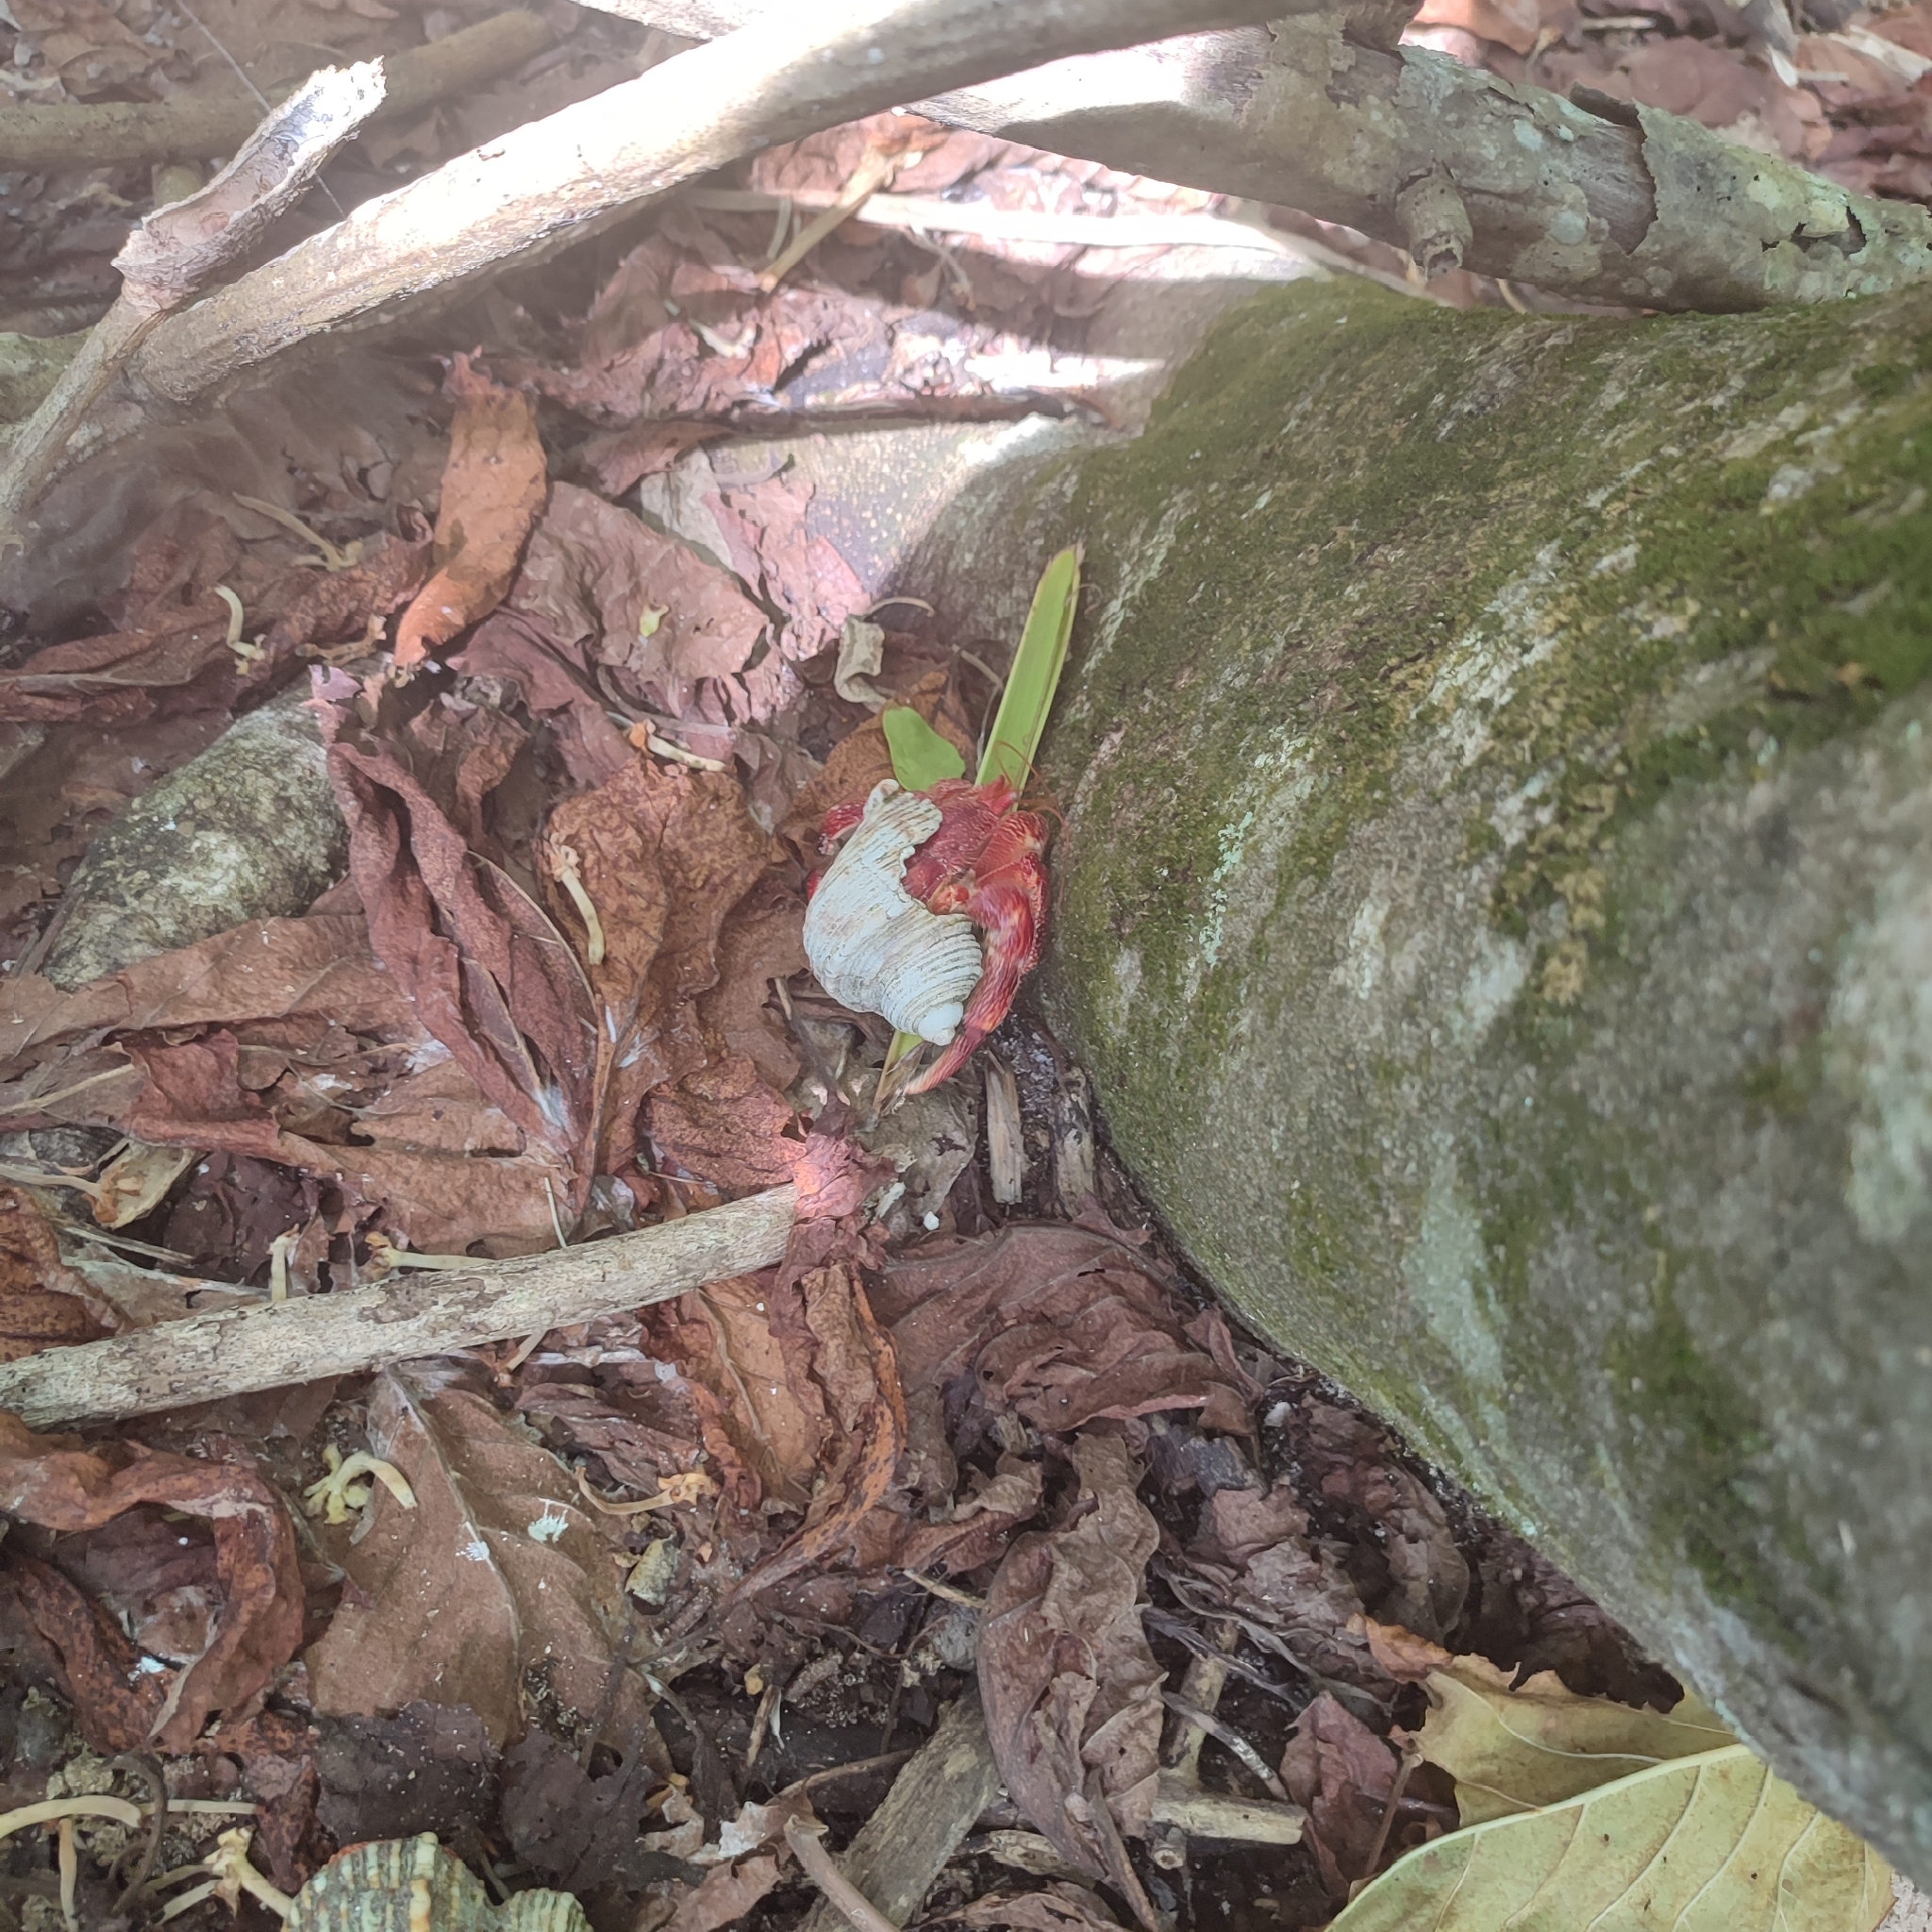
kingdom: Animalia
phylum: Arthropoda
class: Malacostraca
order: Decapoda
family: Coenobitidae
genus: Coenobita
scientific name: Coenobita perlatus
